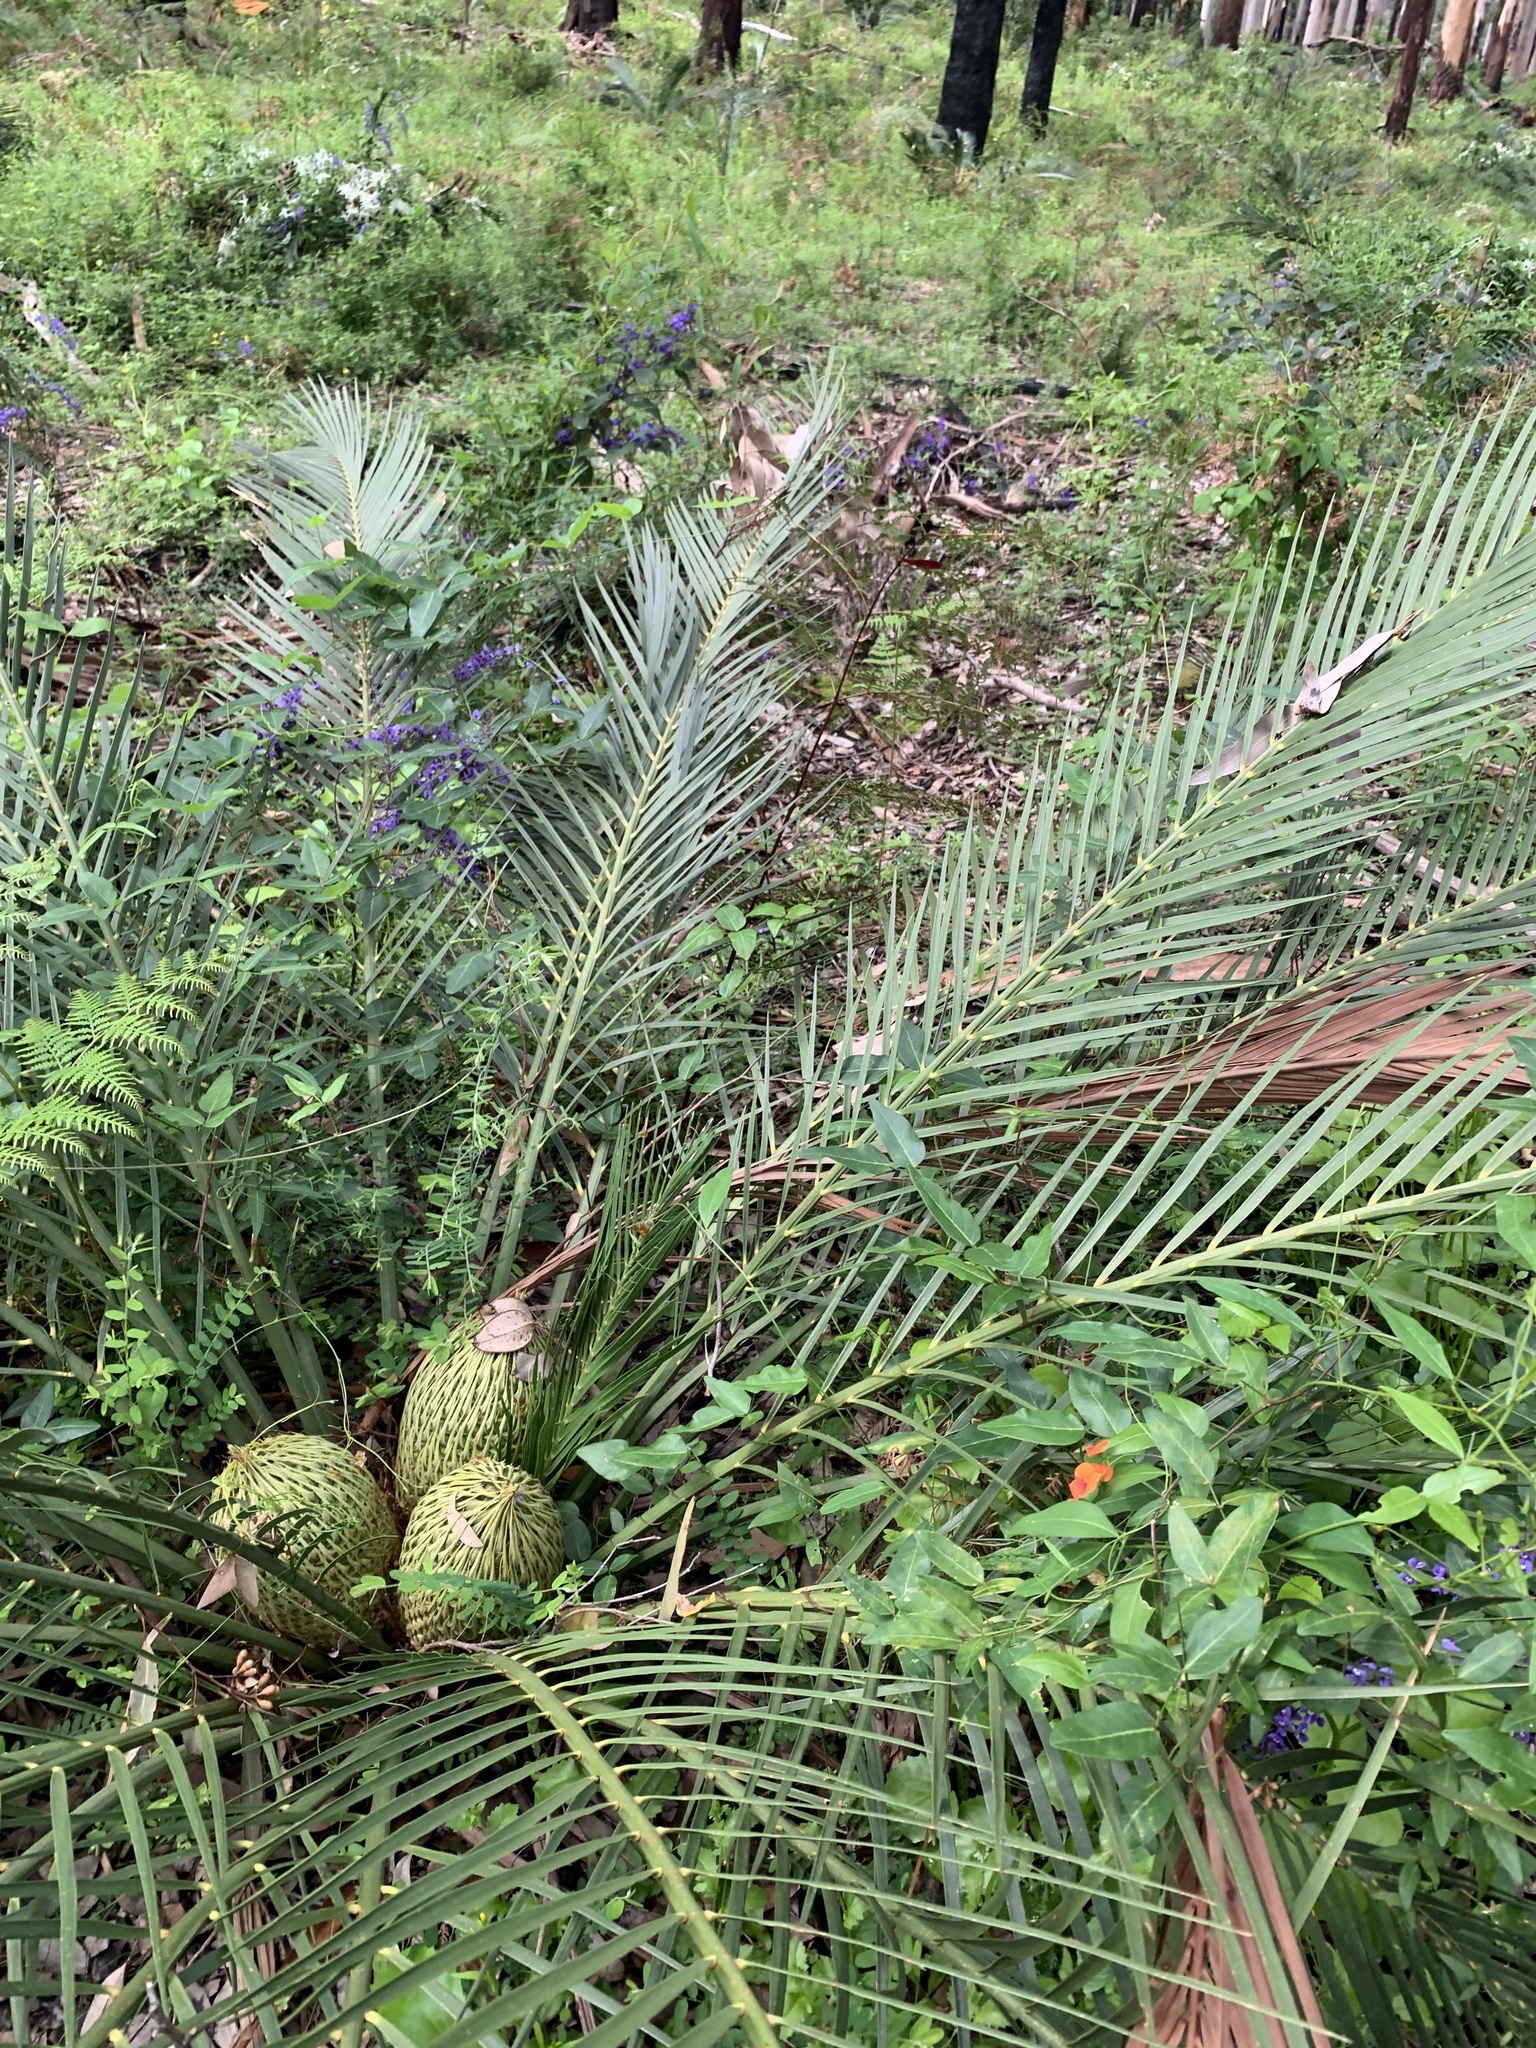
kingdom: Plantae
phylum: Tracheophyta
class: Cycadopsida
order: Cycadales
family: Zamiaceae
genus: Macrozamia
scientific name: Macrozamia riedlei
